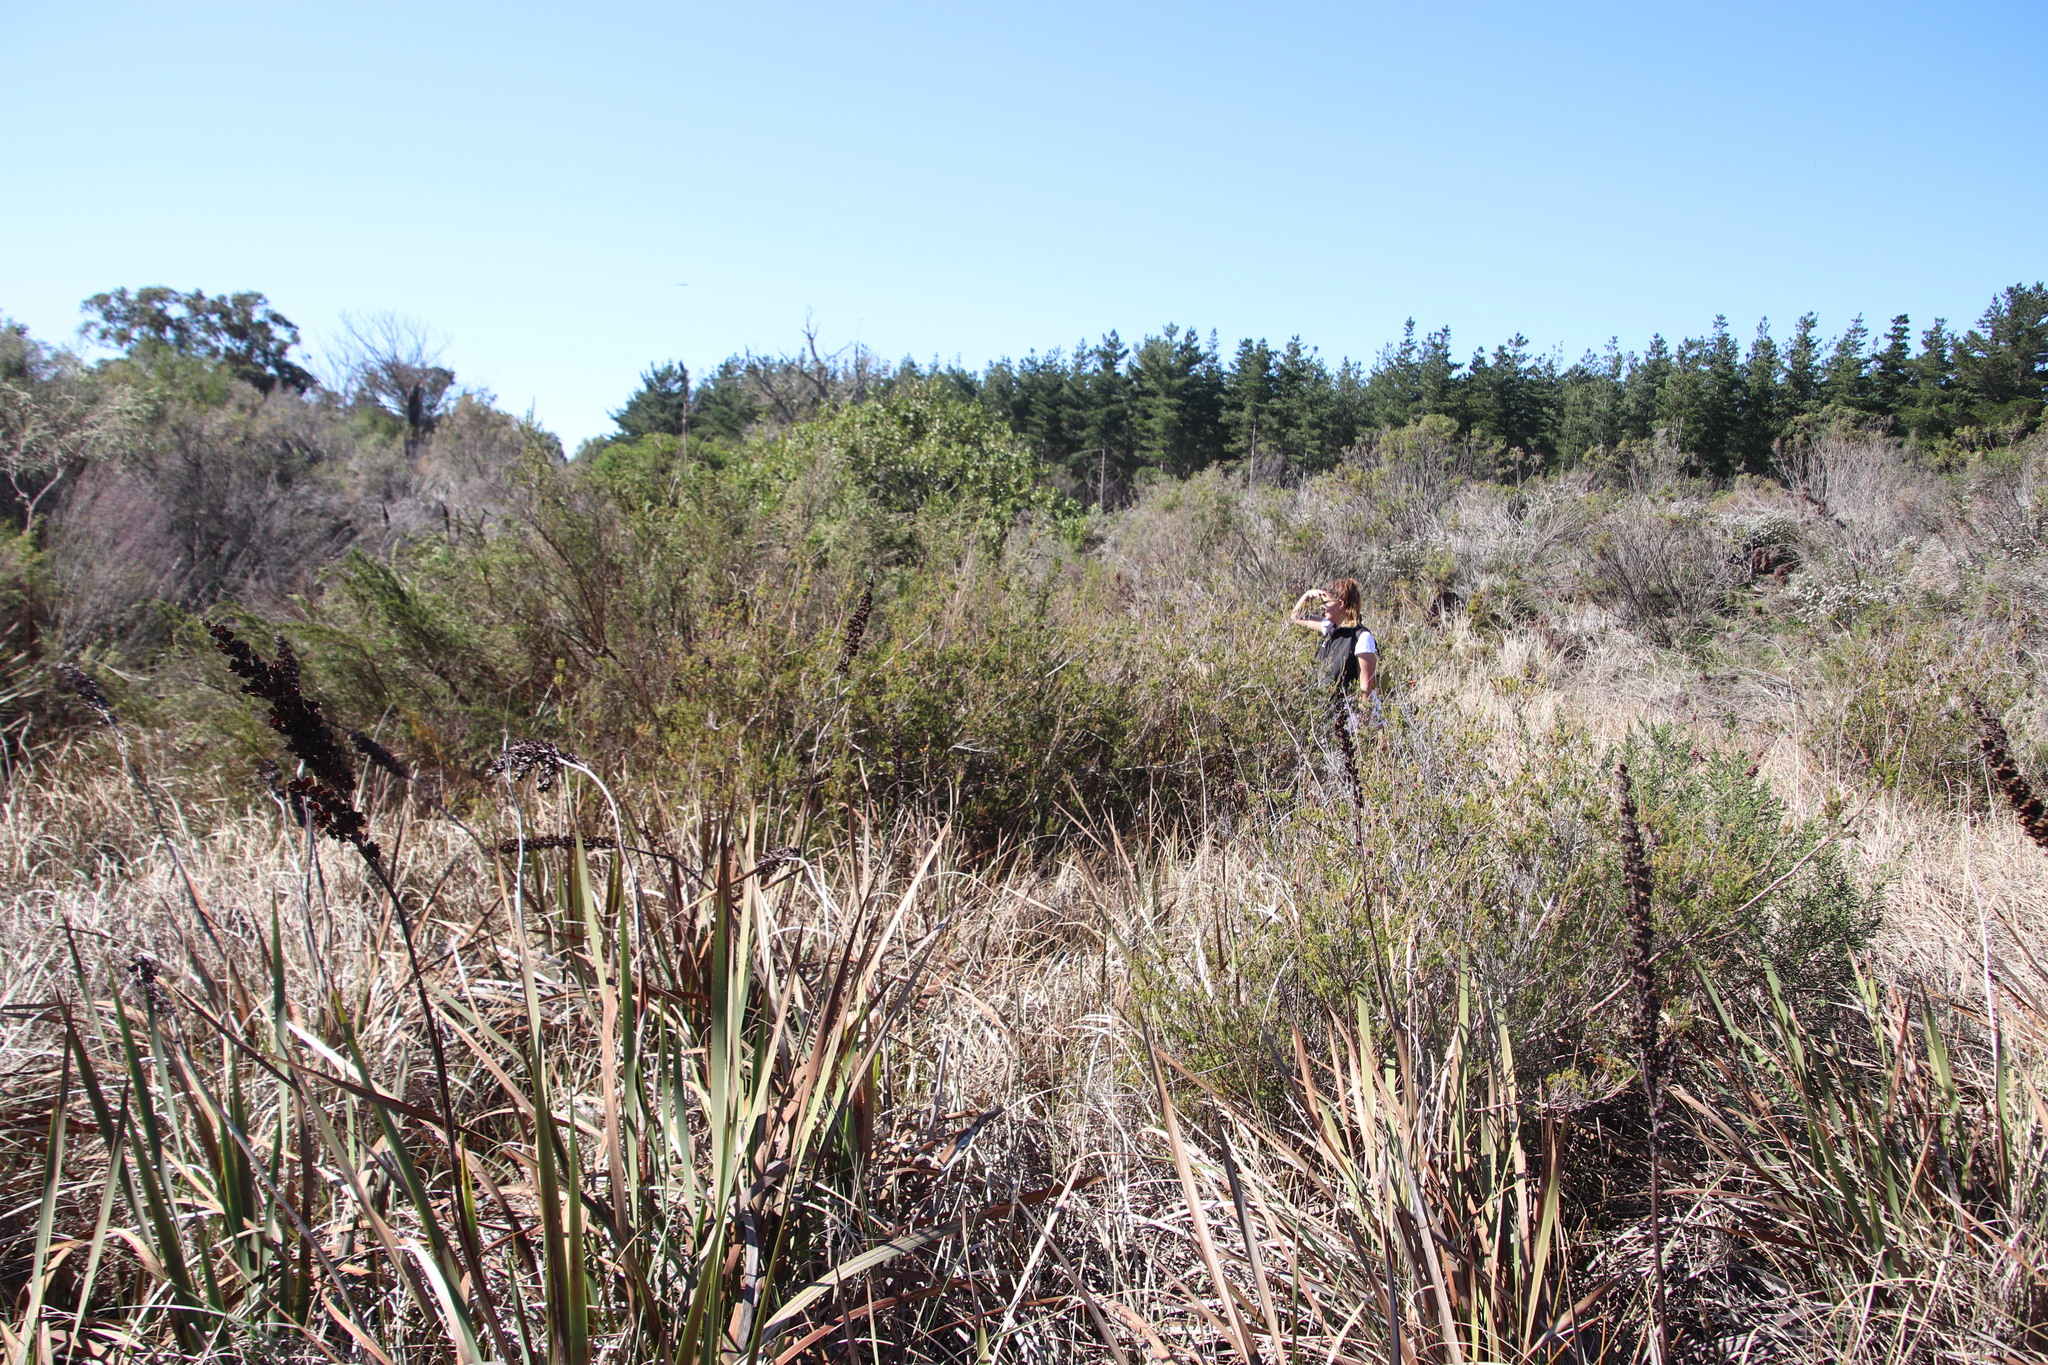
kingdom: Plantae
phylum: Tracheophyta
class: Magnoliopsida
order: Ericales
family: Ericaceae
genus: Erica
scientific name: Erica verticillata
